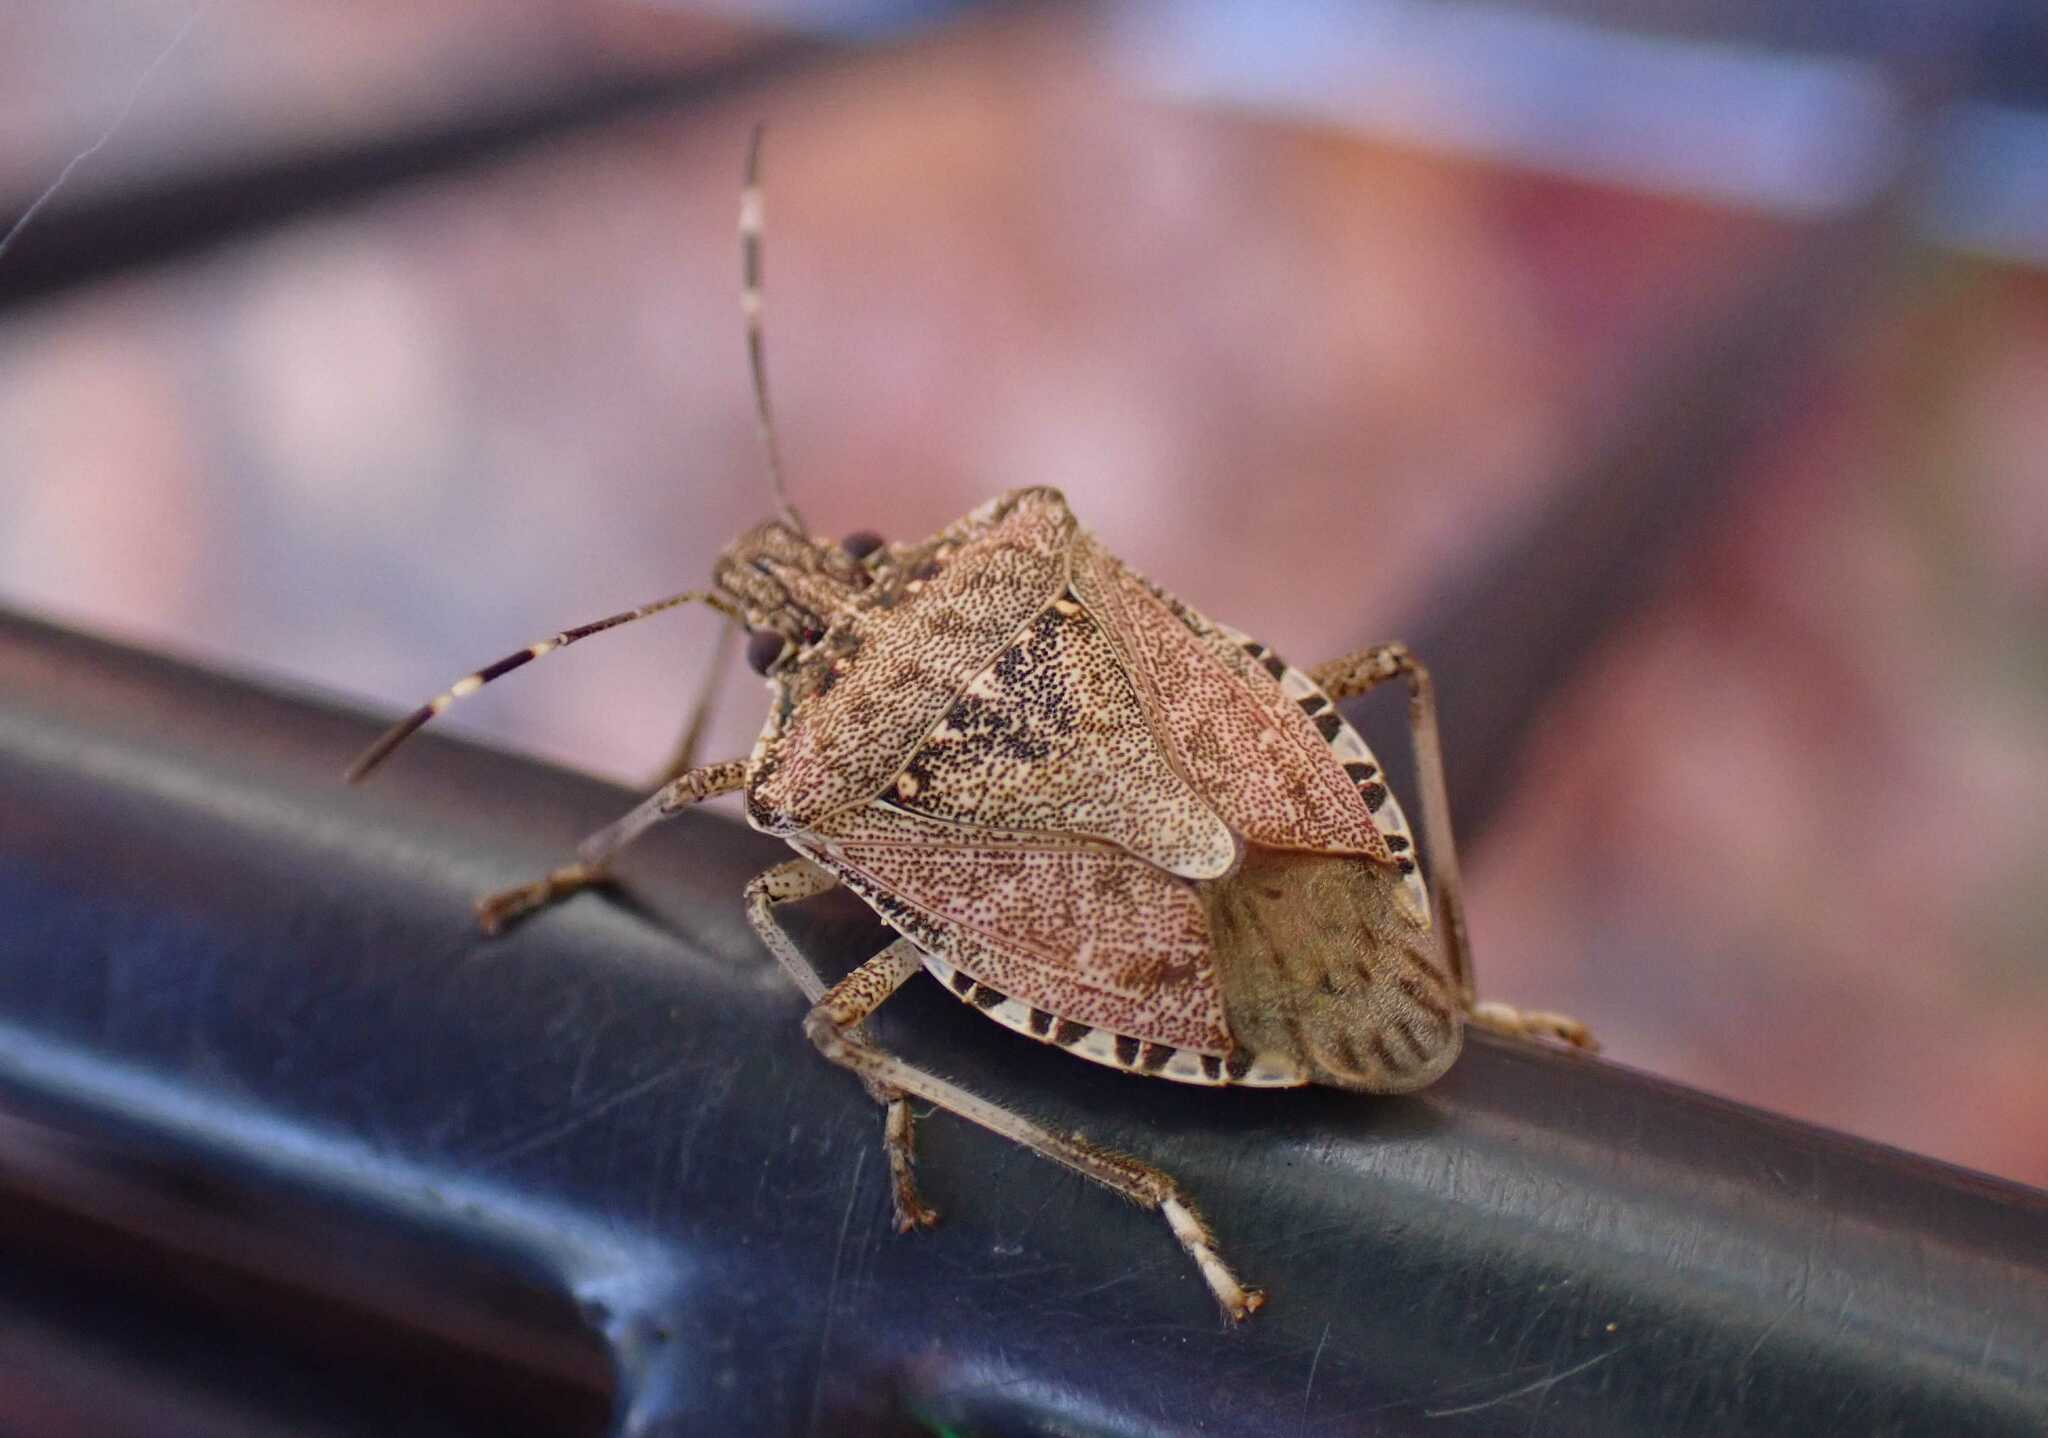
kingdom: Animalia
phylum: Arthropoda
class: Insecta
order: Hemiptera
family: Pentatomidae
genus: Halyomorpha
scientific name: Halyomorpha halys
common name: Brown marmorated stink bug
